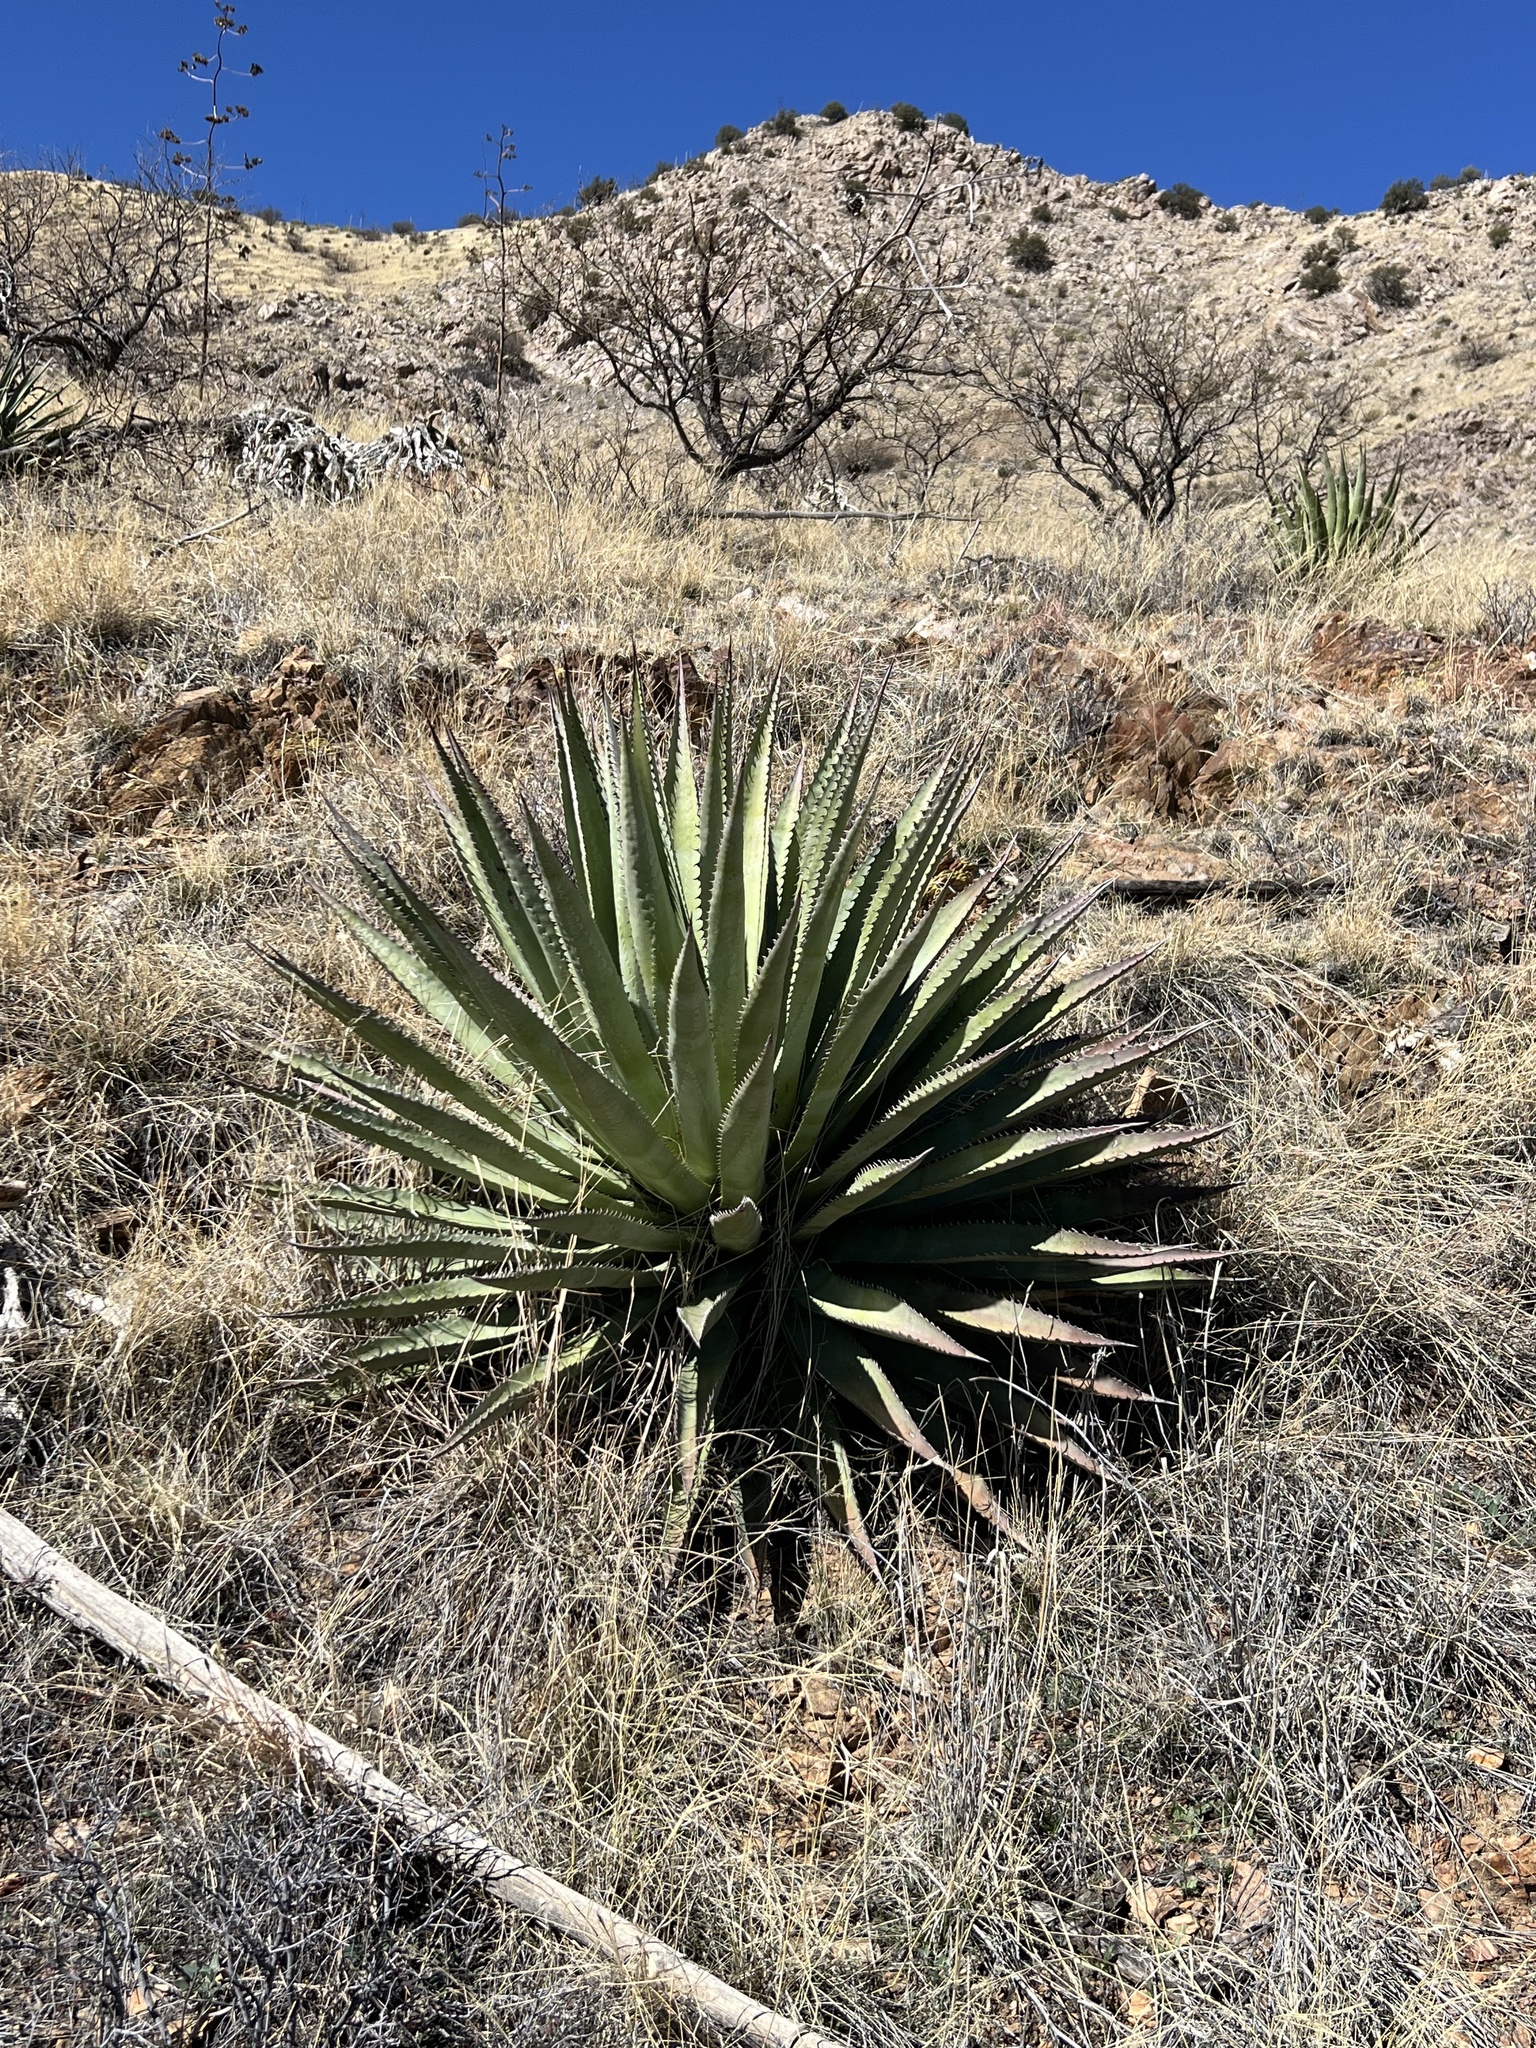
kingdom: Plantae
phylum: Tracheophyta
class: Liliopsida
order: Asparagales
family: Asparagaceae
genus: Agave
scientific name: Agave palmeri
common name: Palmer agave
